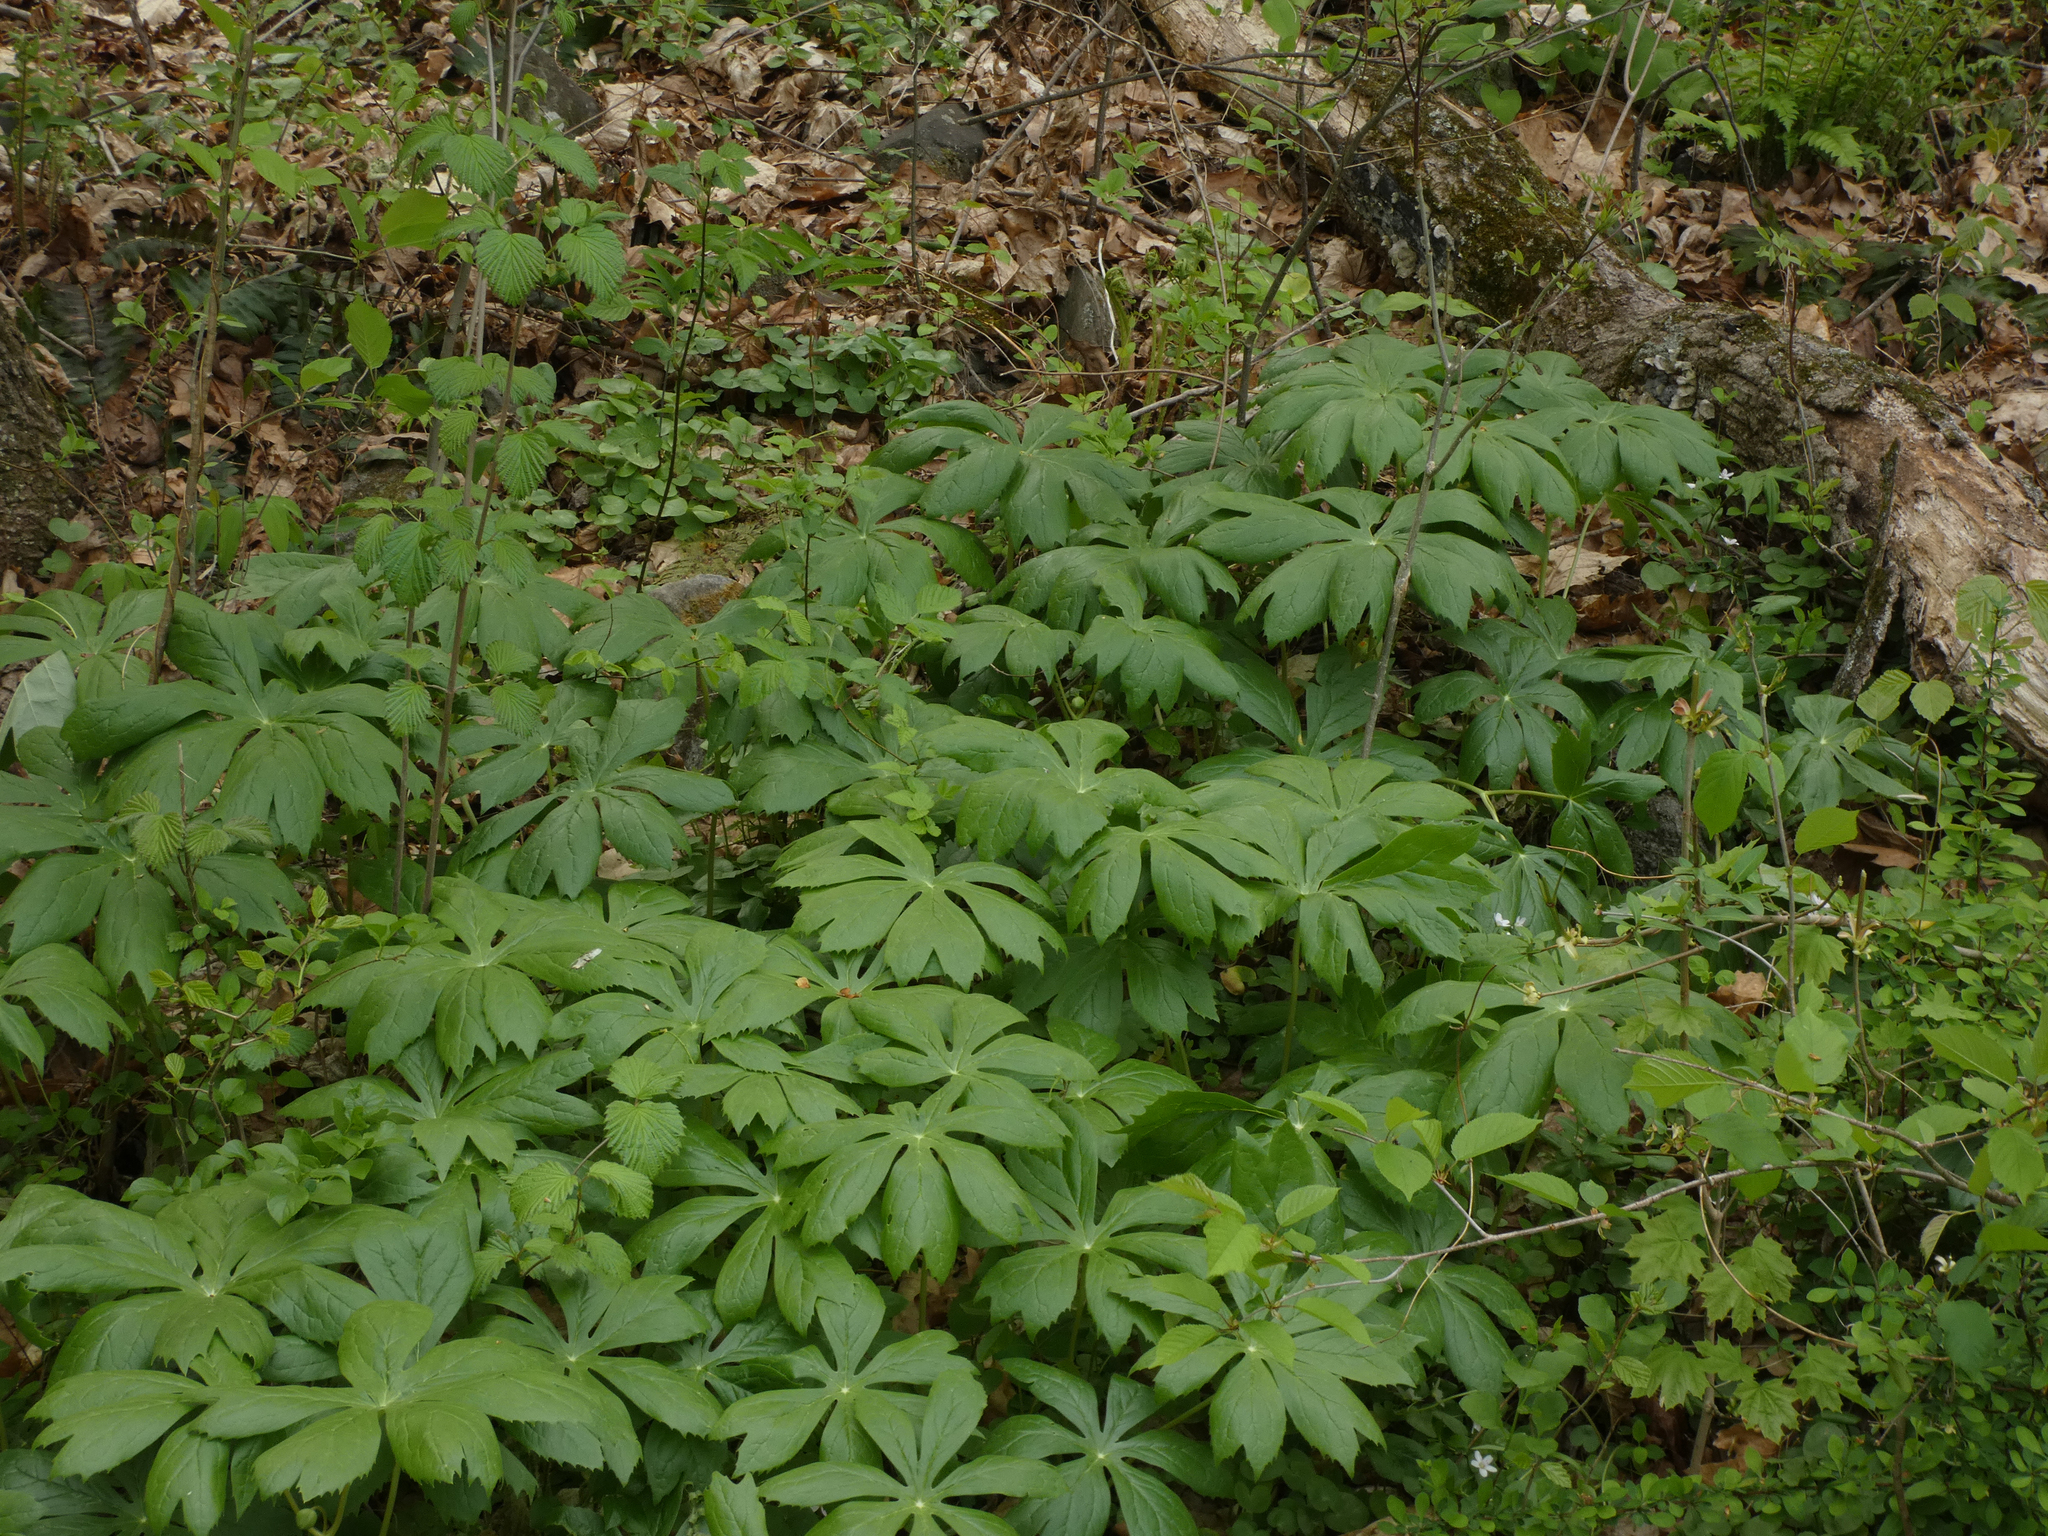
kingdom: Plantae
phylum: Tracheophyta
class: Magnoliopsida
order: Ranunculales
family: Berberidaceae
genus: Podophyllum
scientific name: Podophyllum peltatum
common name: Wild mandrake
